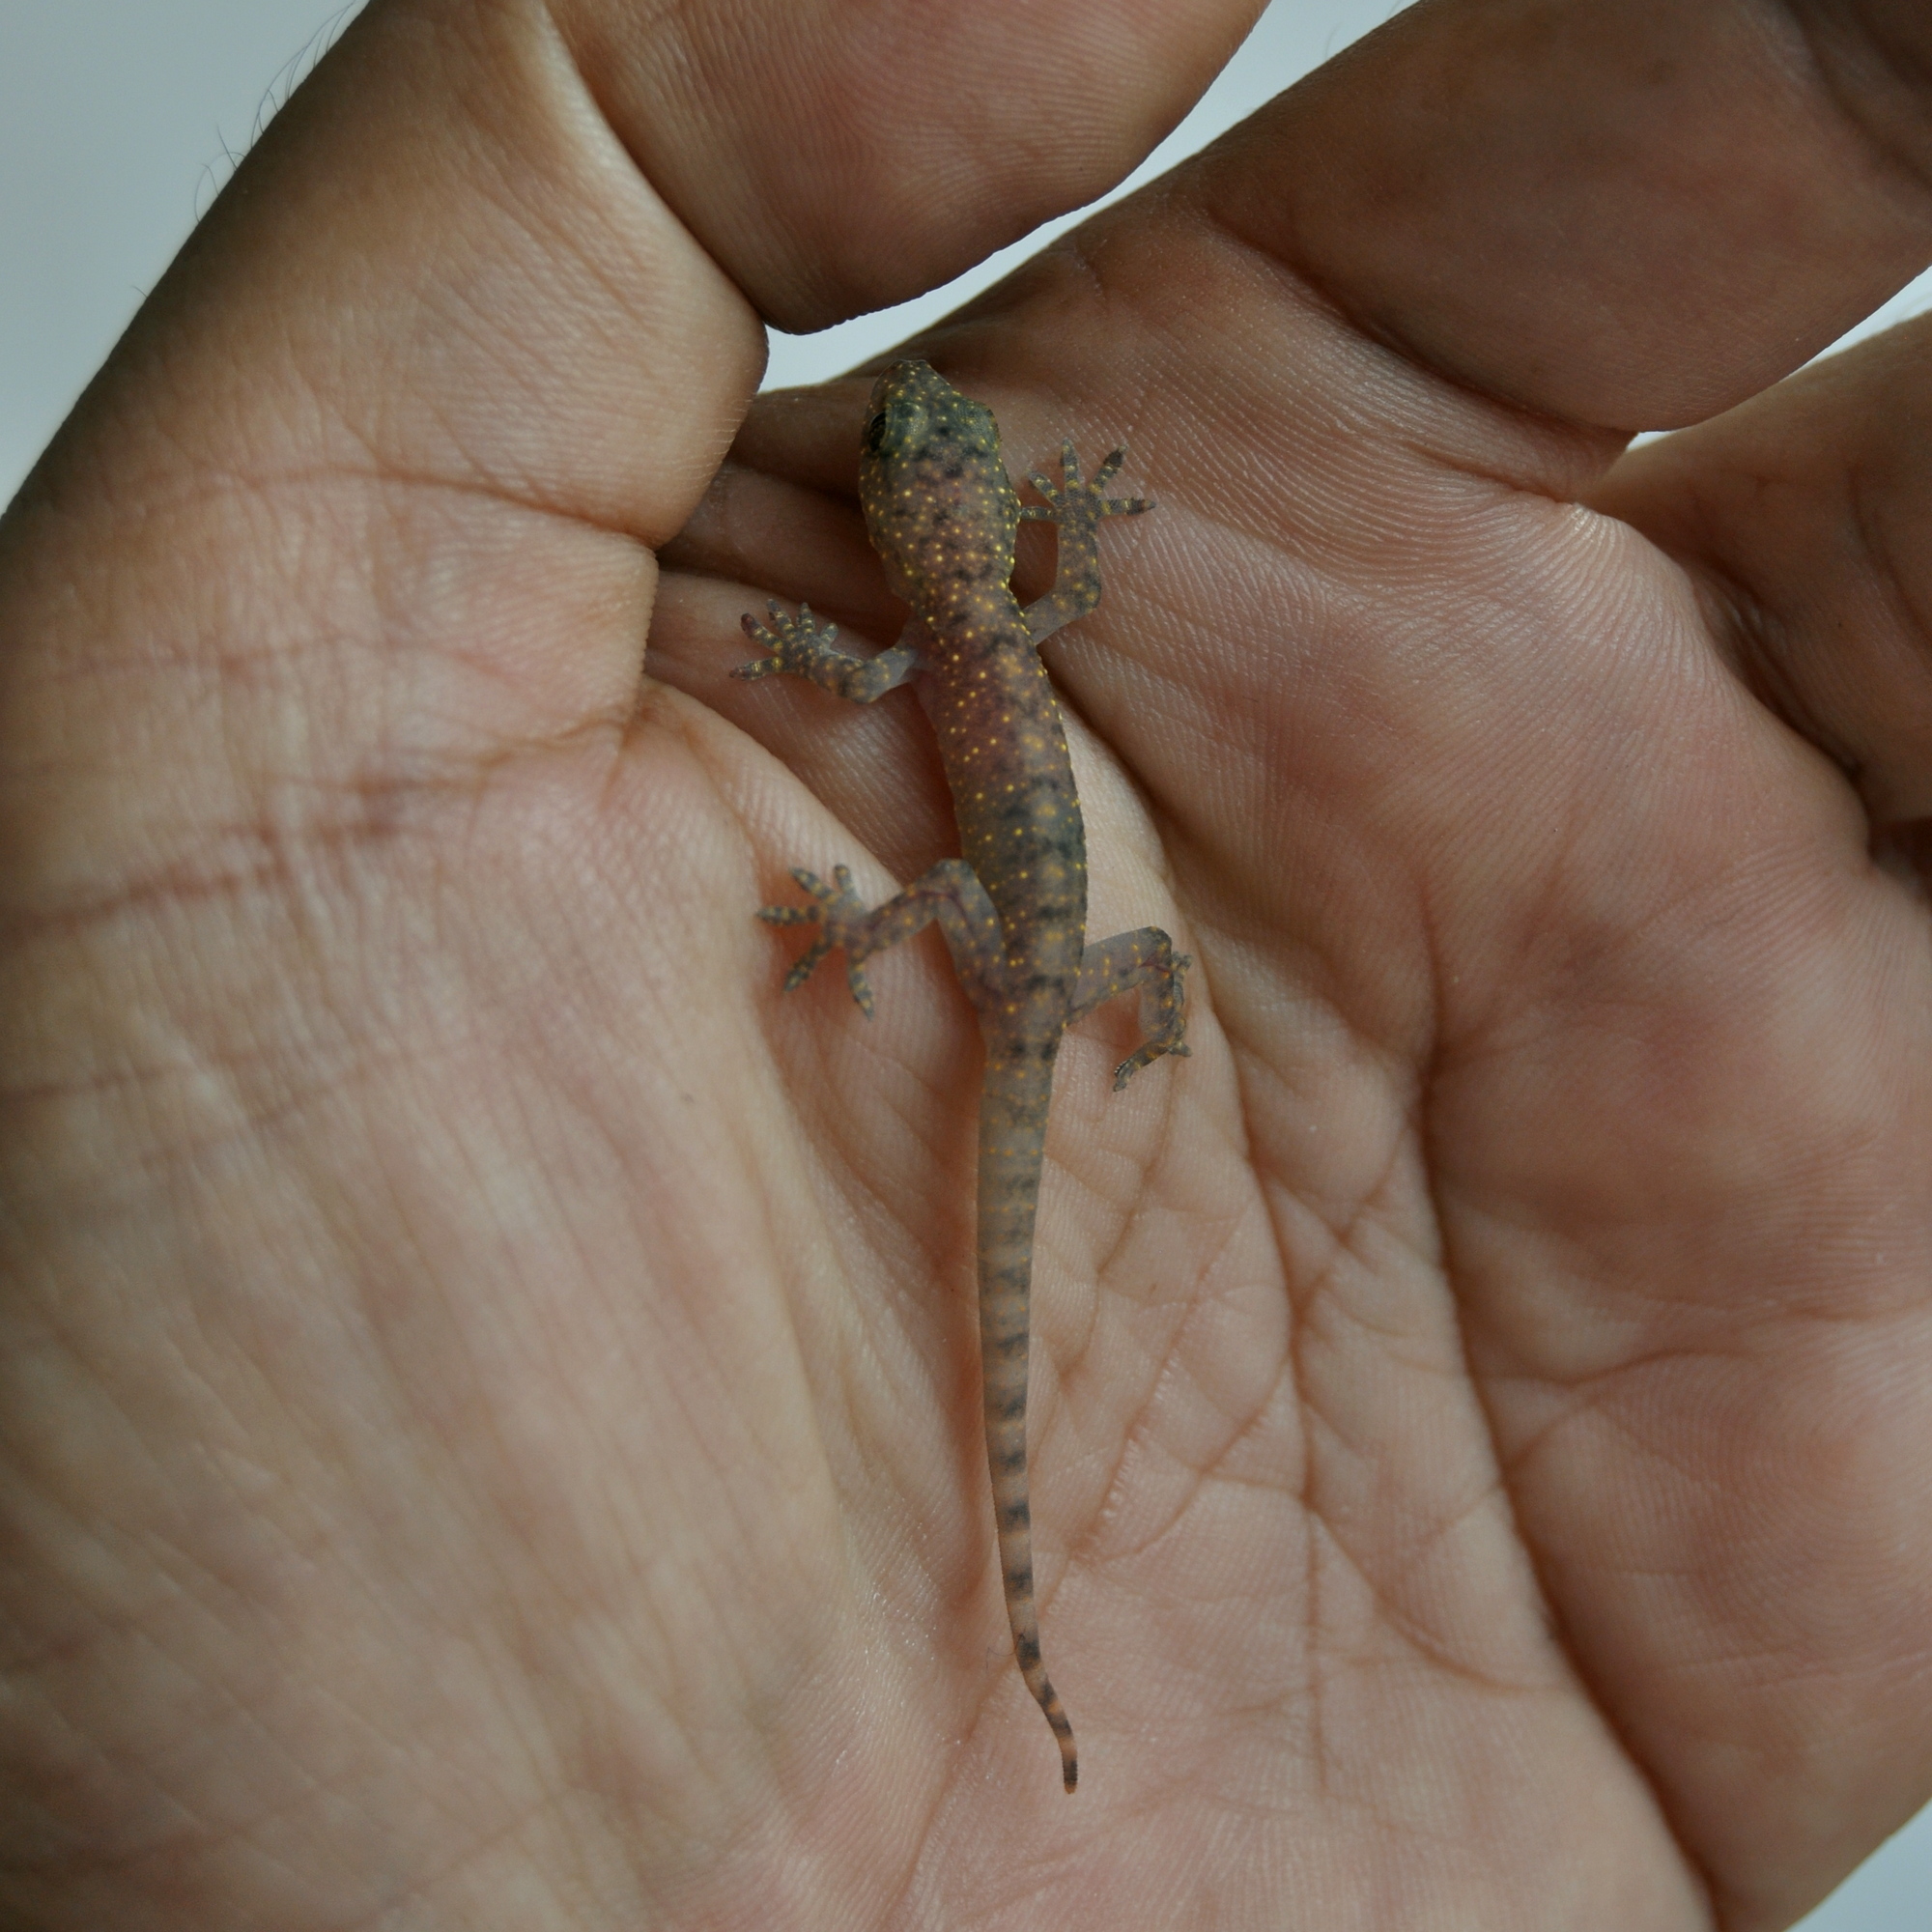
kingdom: Animalia
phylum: Chordata
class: Squamata
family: Gekkonidae
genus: Gehyra
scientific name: Gehyra mutilata
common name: Stump-toed gecko
